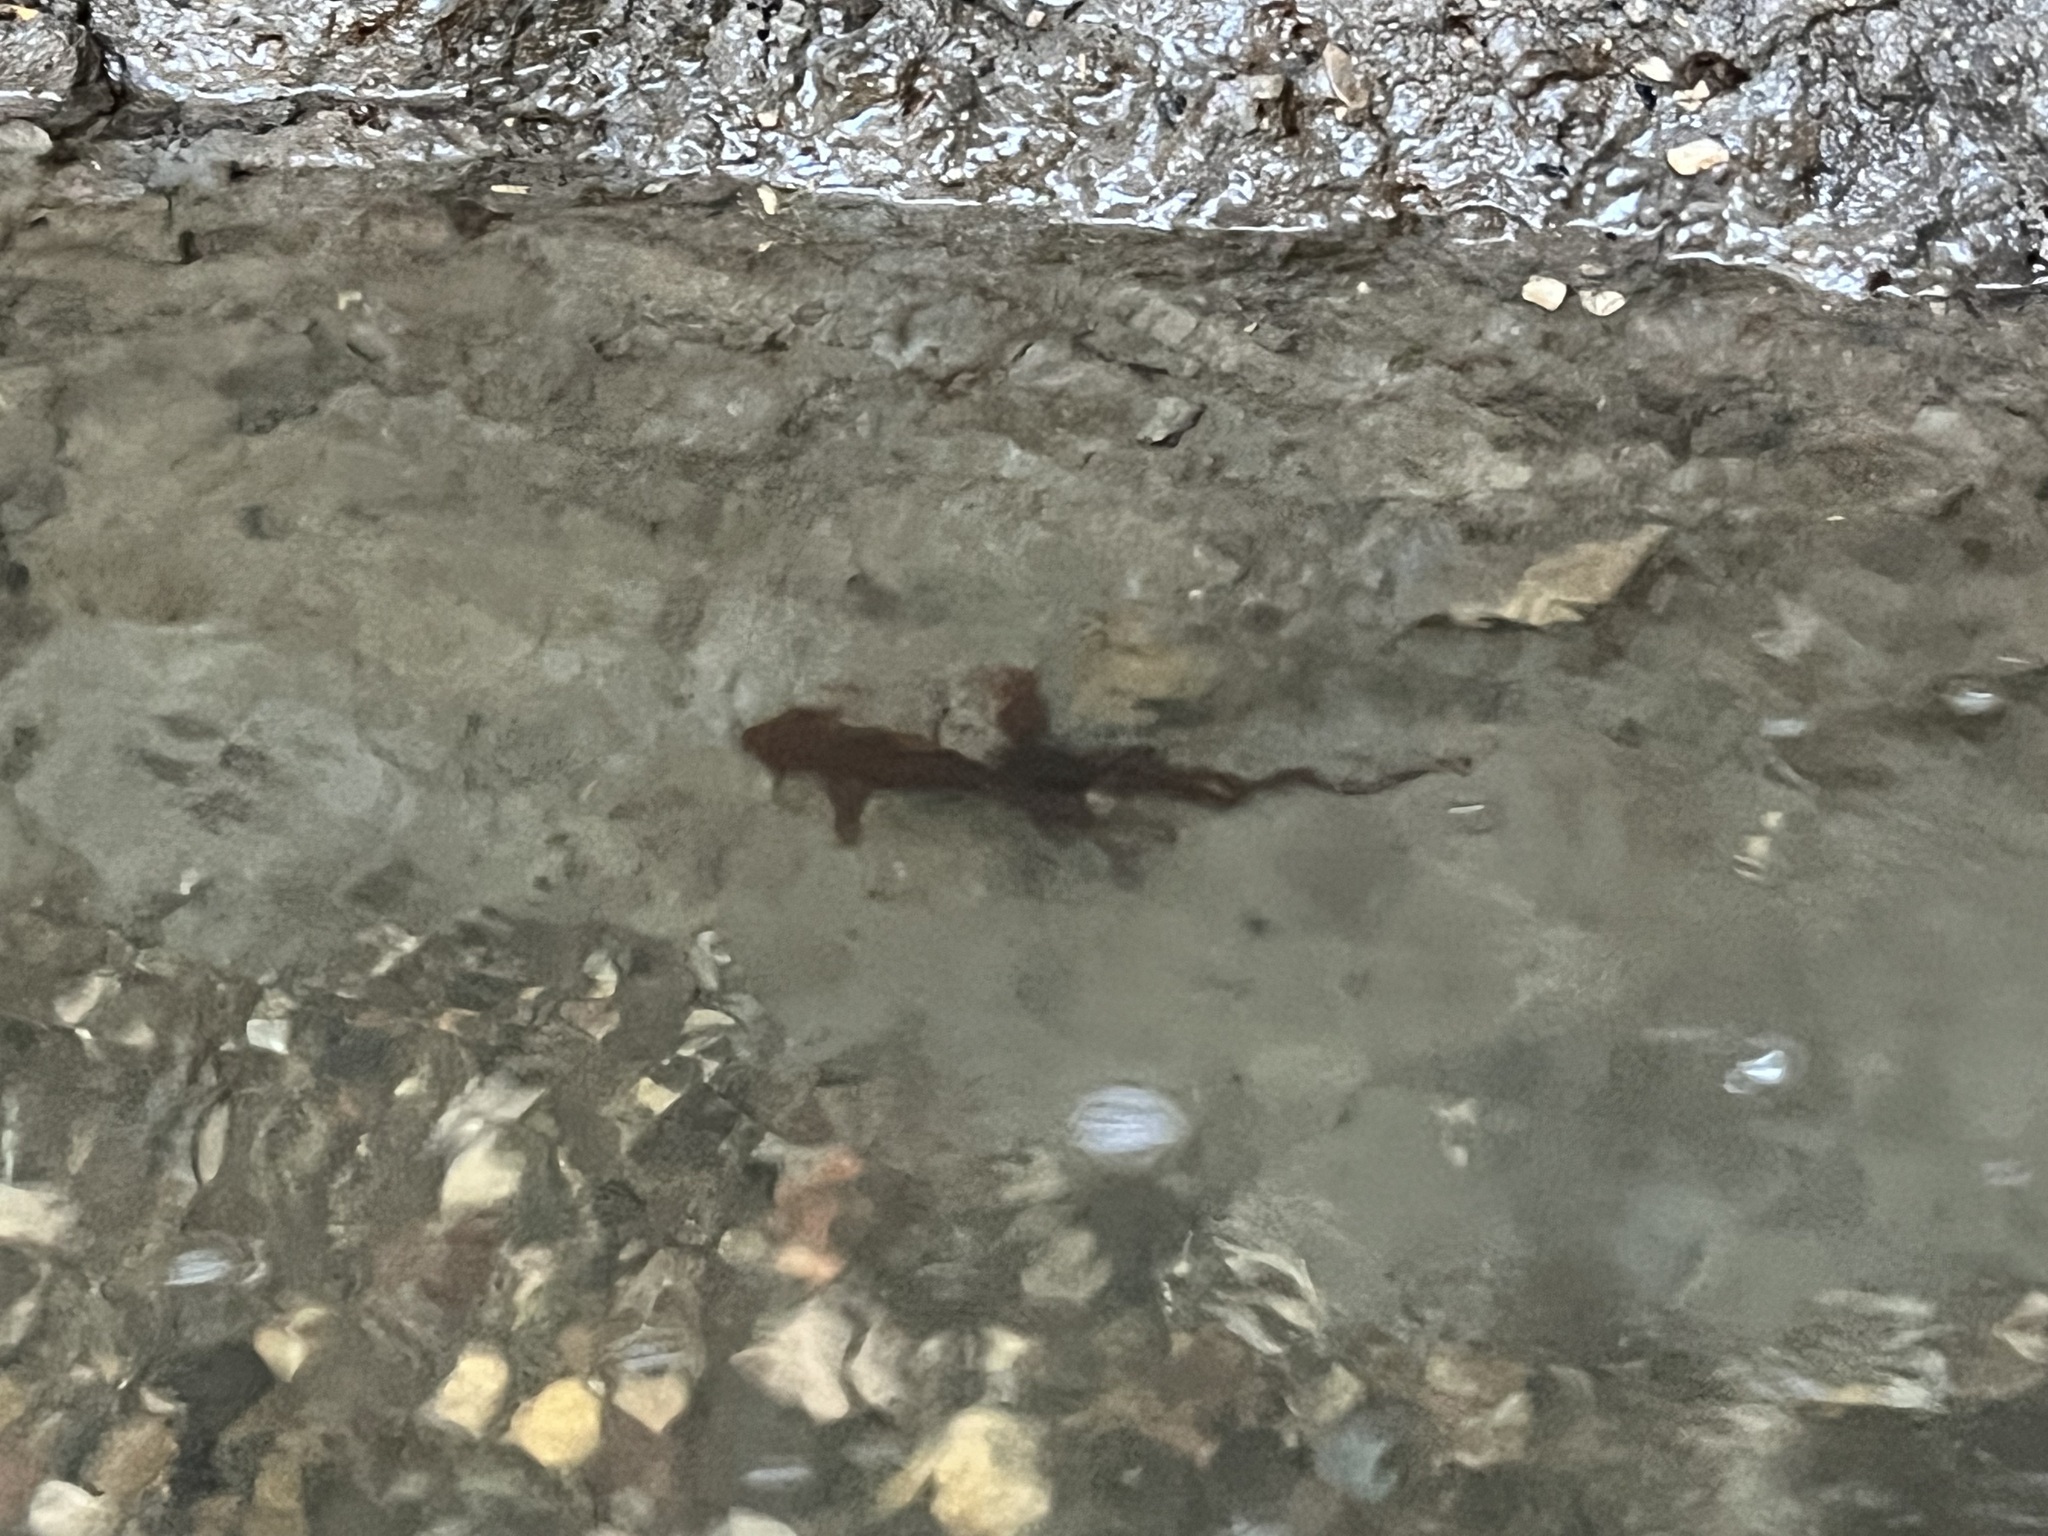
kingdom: Animalia
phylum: Chordata
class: Amphibia
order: Caudata
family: Salamandridae
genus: Taricha
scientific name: Taricha torosa
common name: California newt
